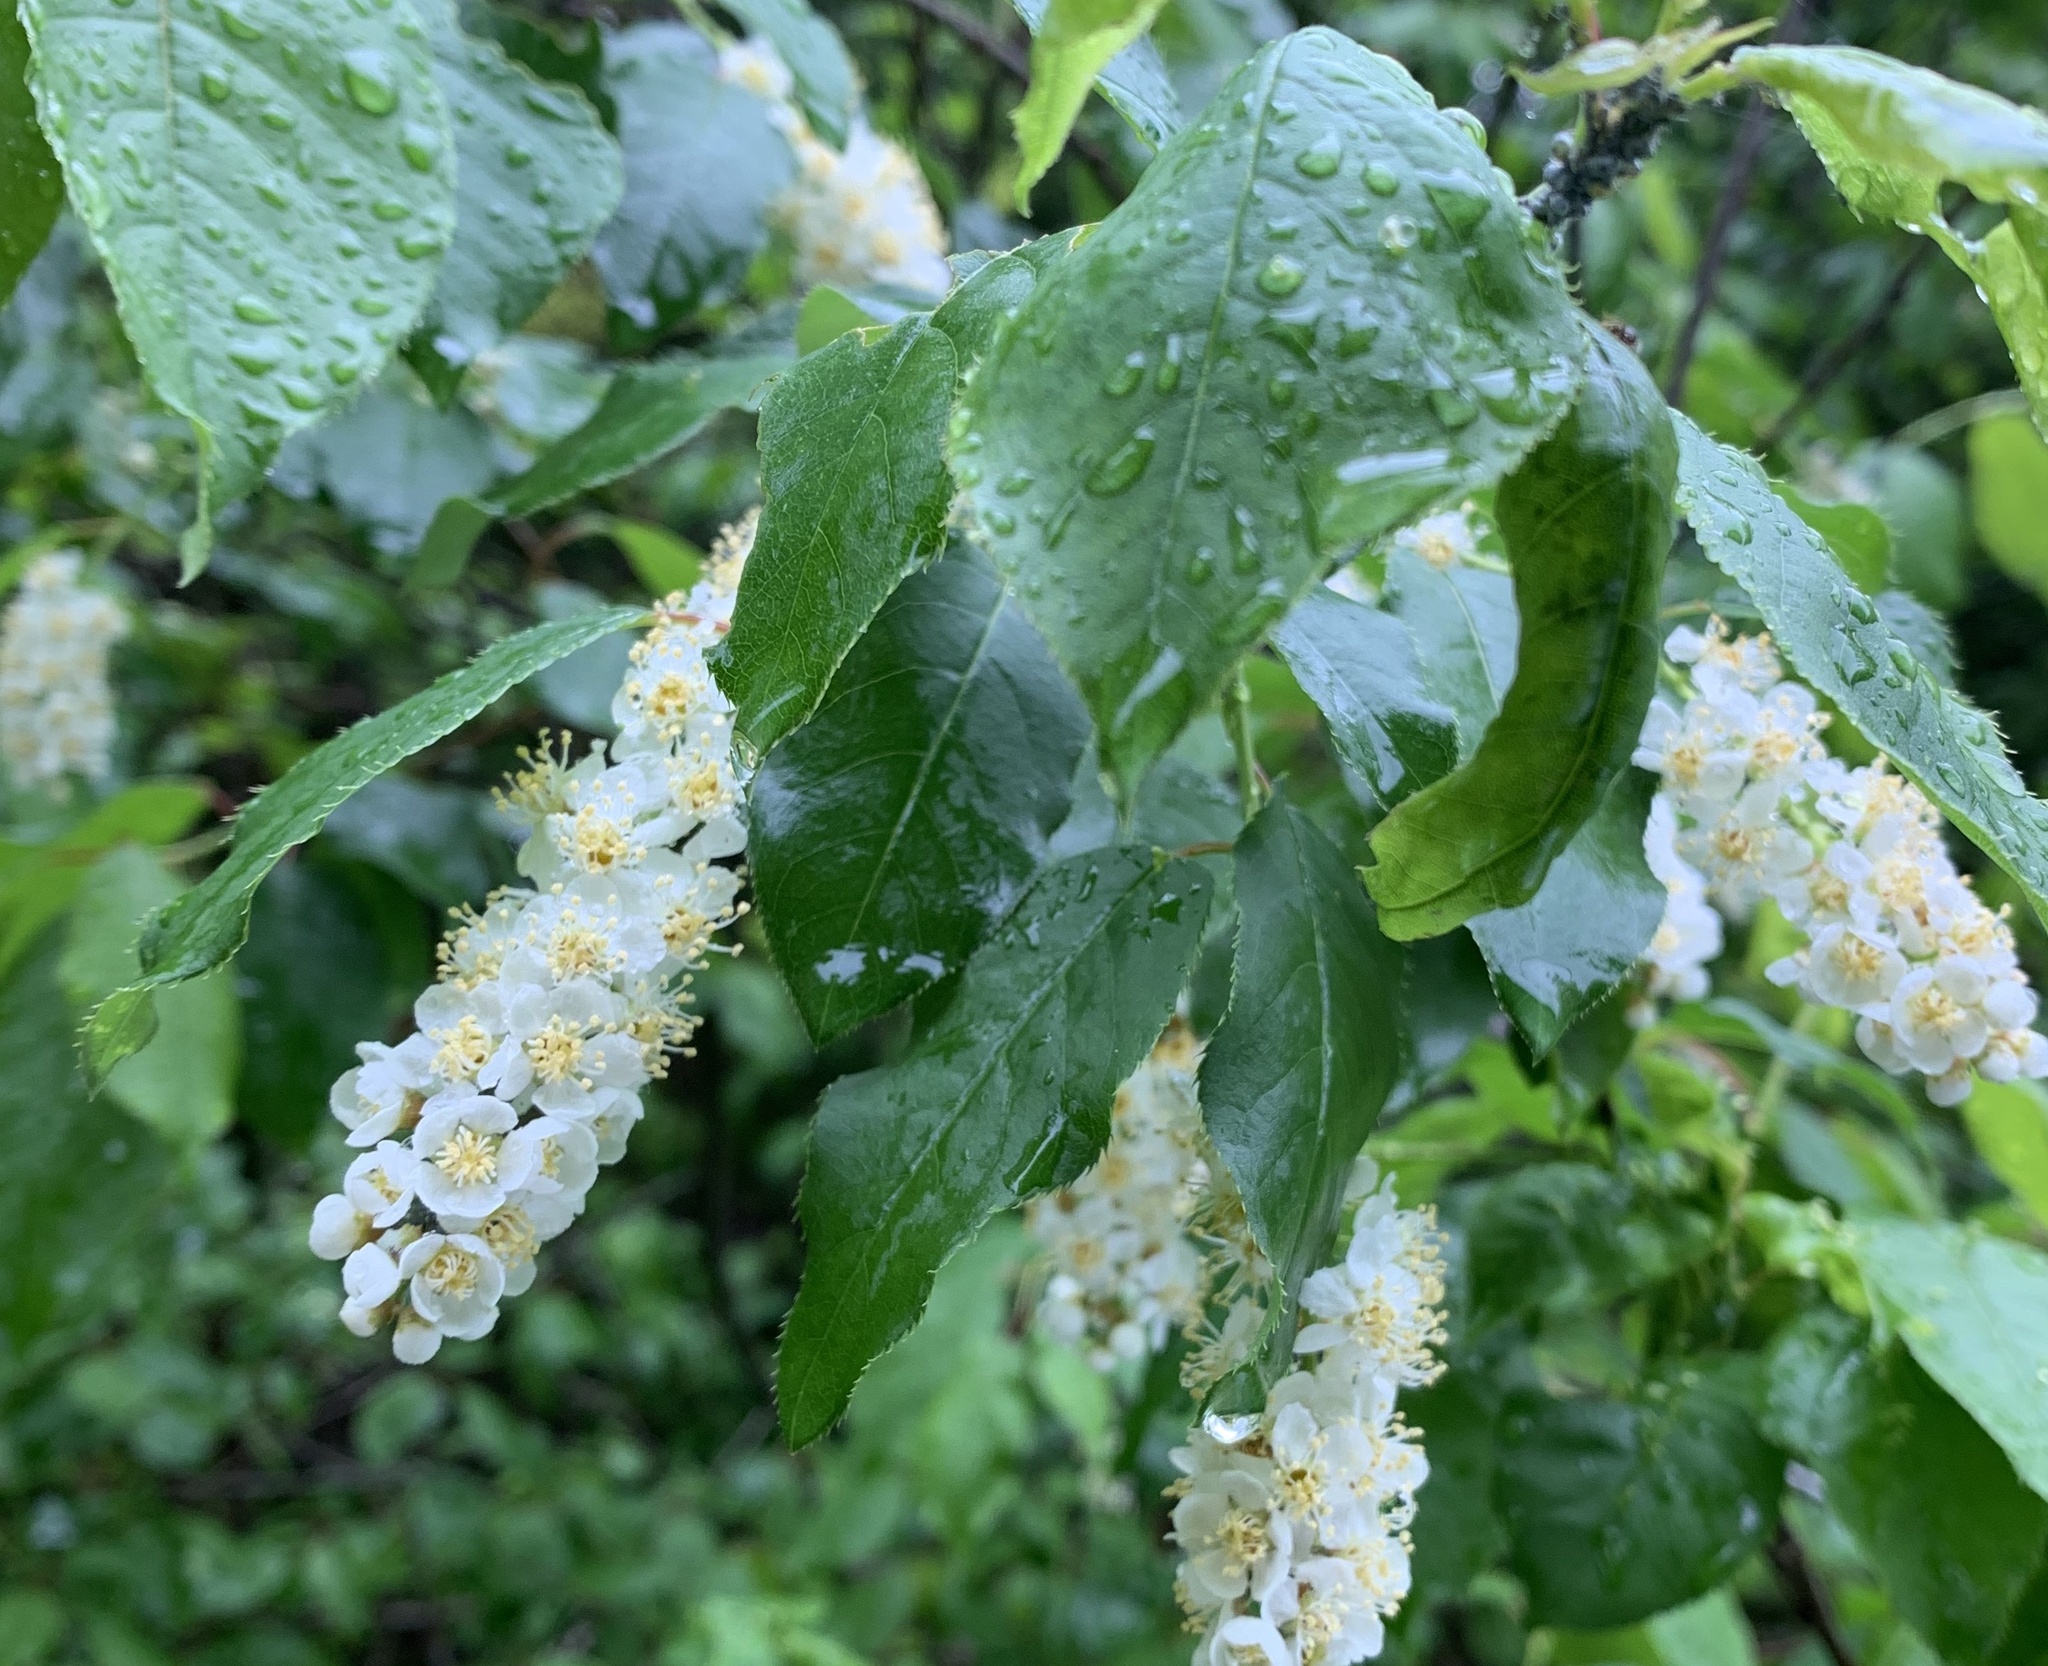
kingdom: Plantae
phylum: Tracheophyta
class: Magnoliopsida
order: Rosales
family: Rosaceae
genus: Prunus
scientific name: Prunus virginiana
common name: Chokecherry
